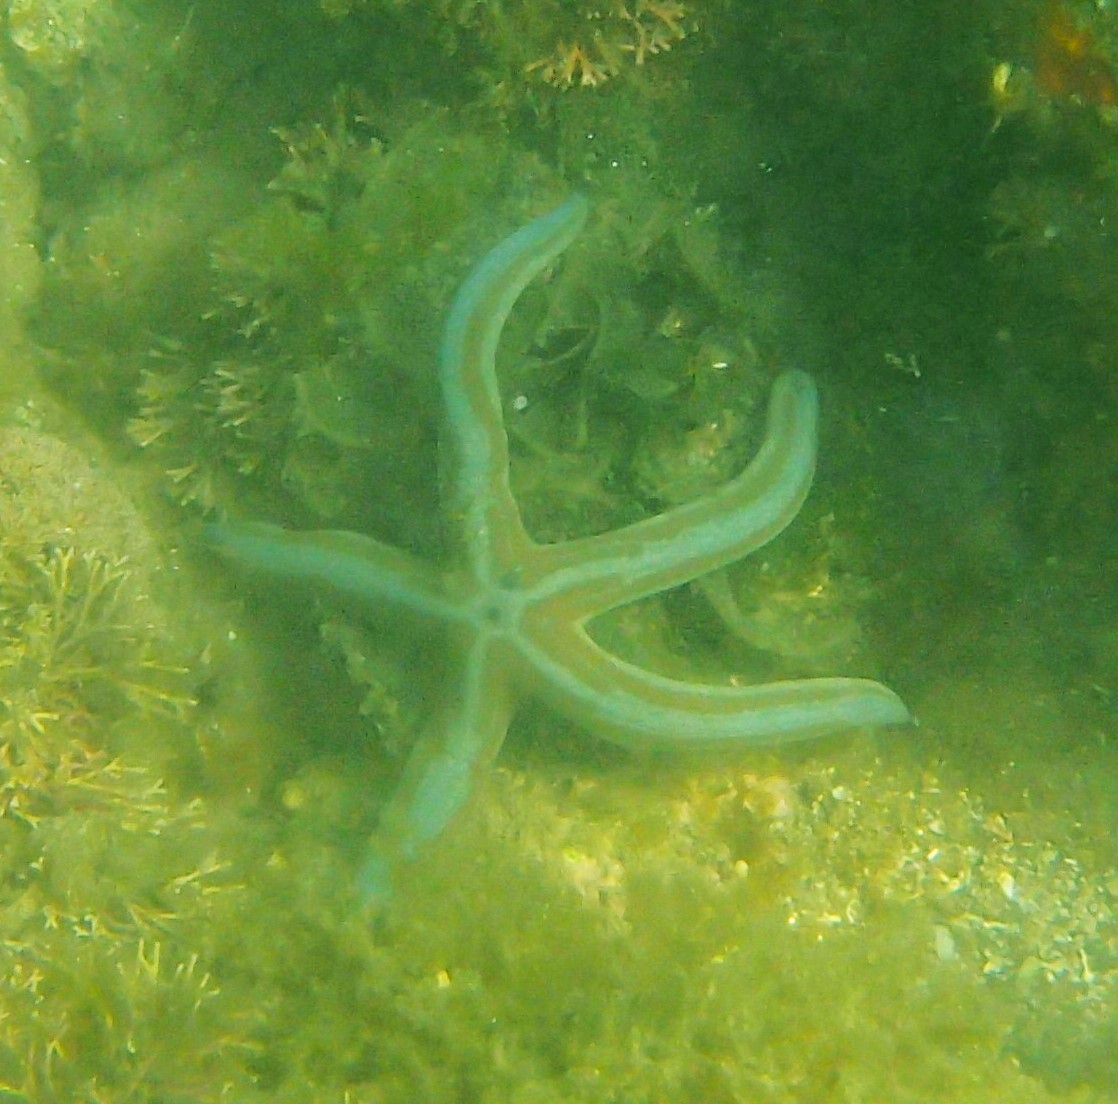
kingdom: Animalia
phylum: Echinodermata
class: Asteroidea
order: Valvatida
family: Ophidiasteridae
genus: Phataria
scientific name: Phataria unifascialis
